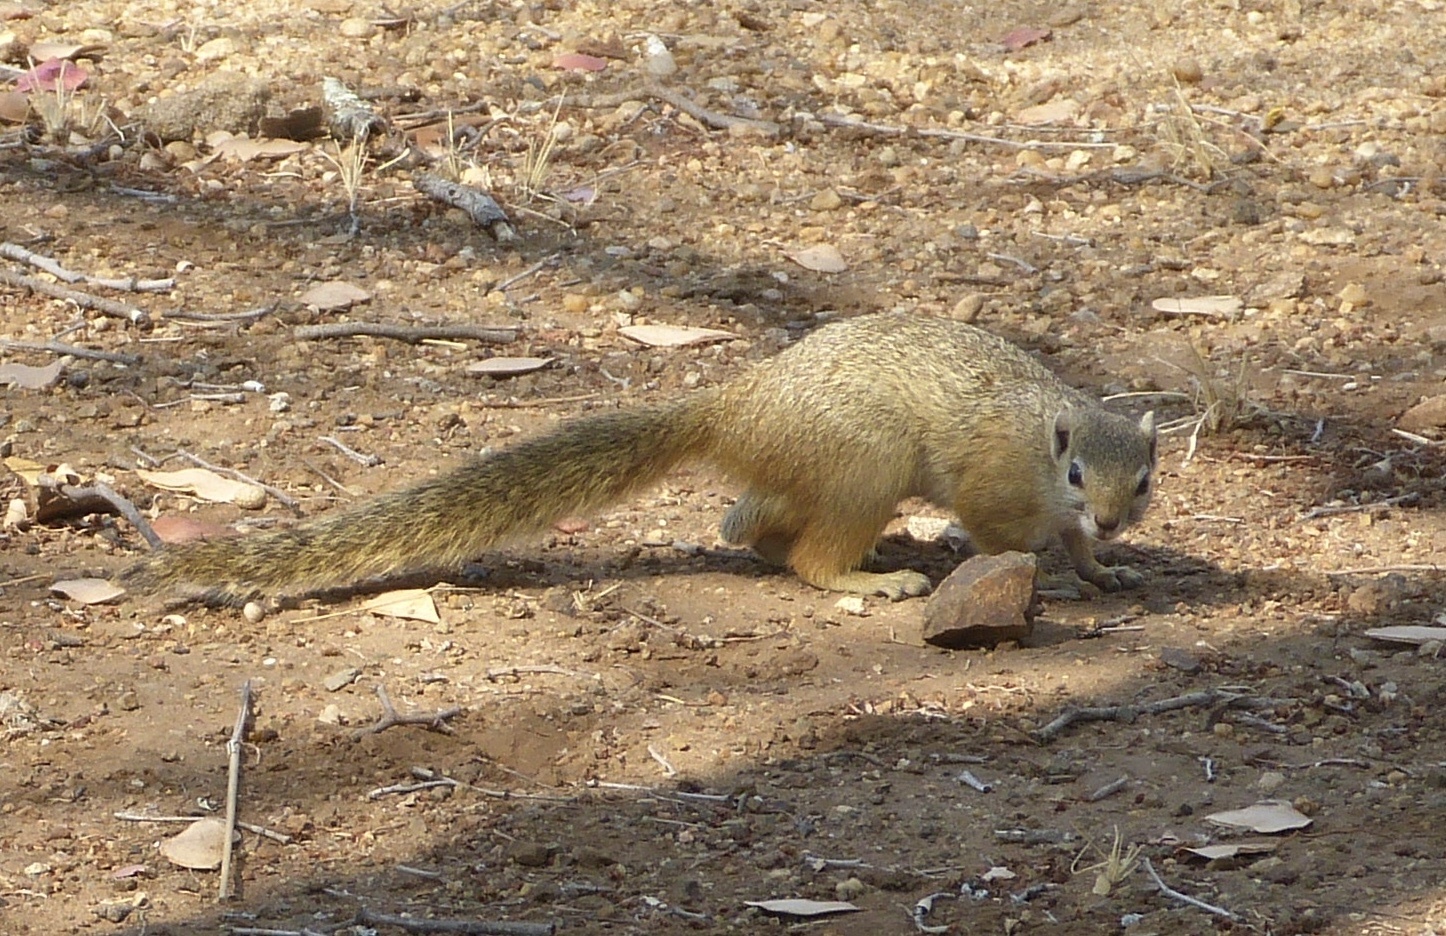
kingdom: Animalia
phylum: Chordata
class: Mammalia
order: Rodentia
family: Sciuridae
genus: Paraxerus
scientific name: Paraxerus cepapi
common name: Smith's bush squirrel
